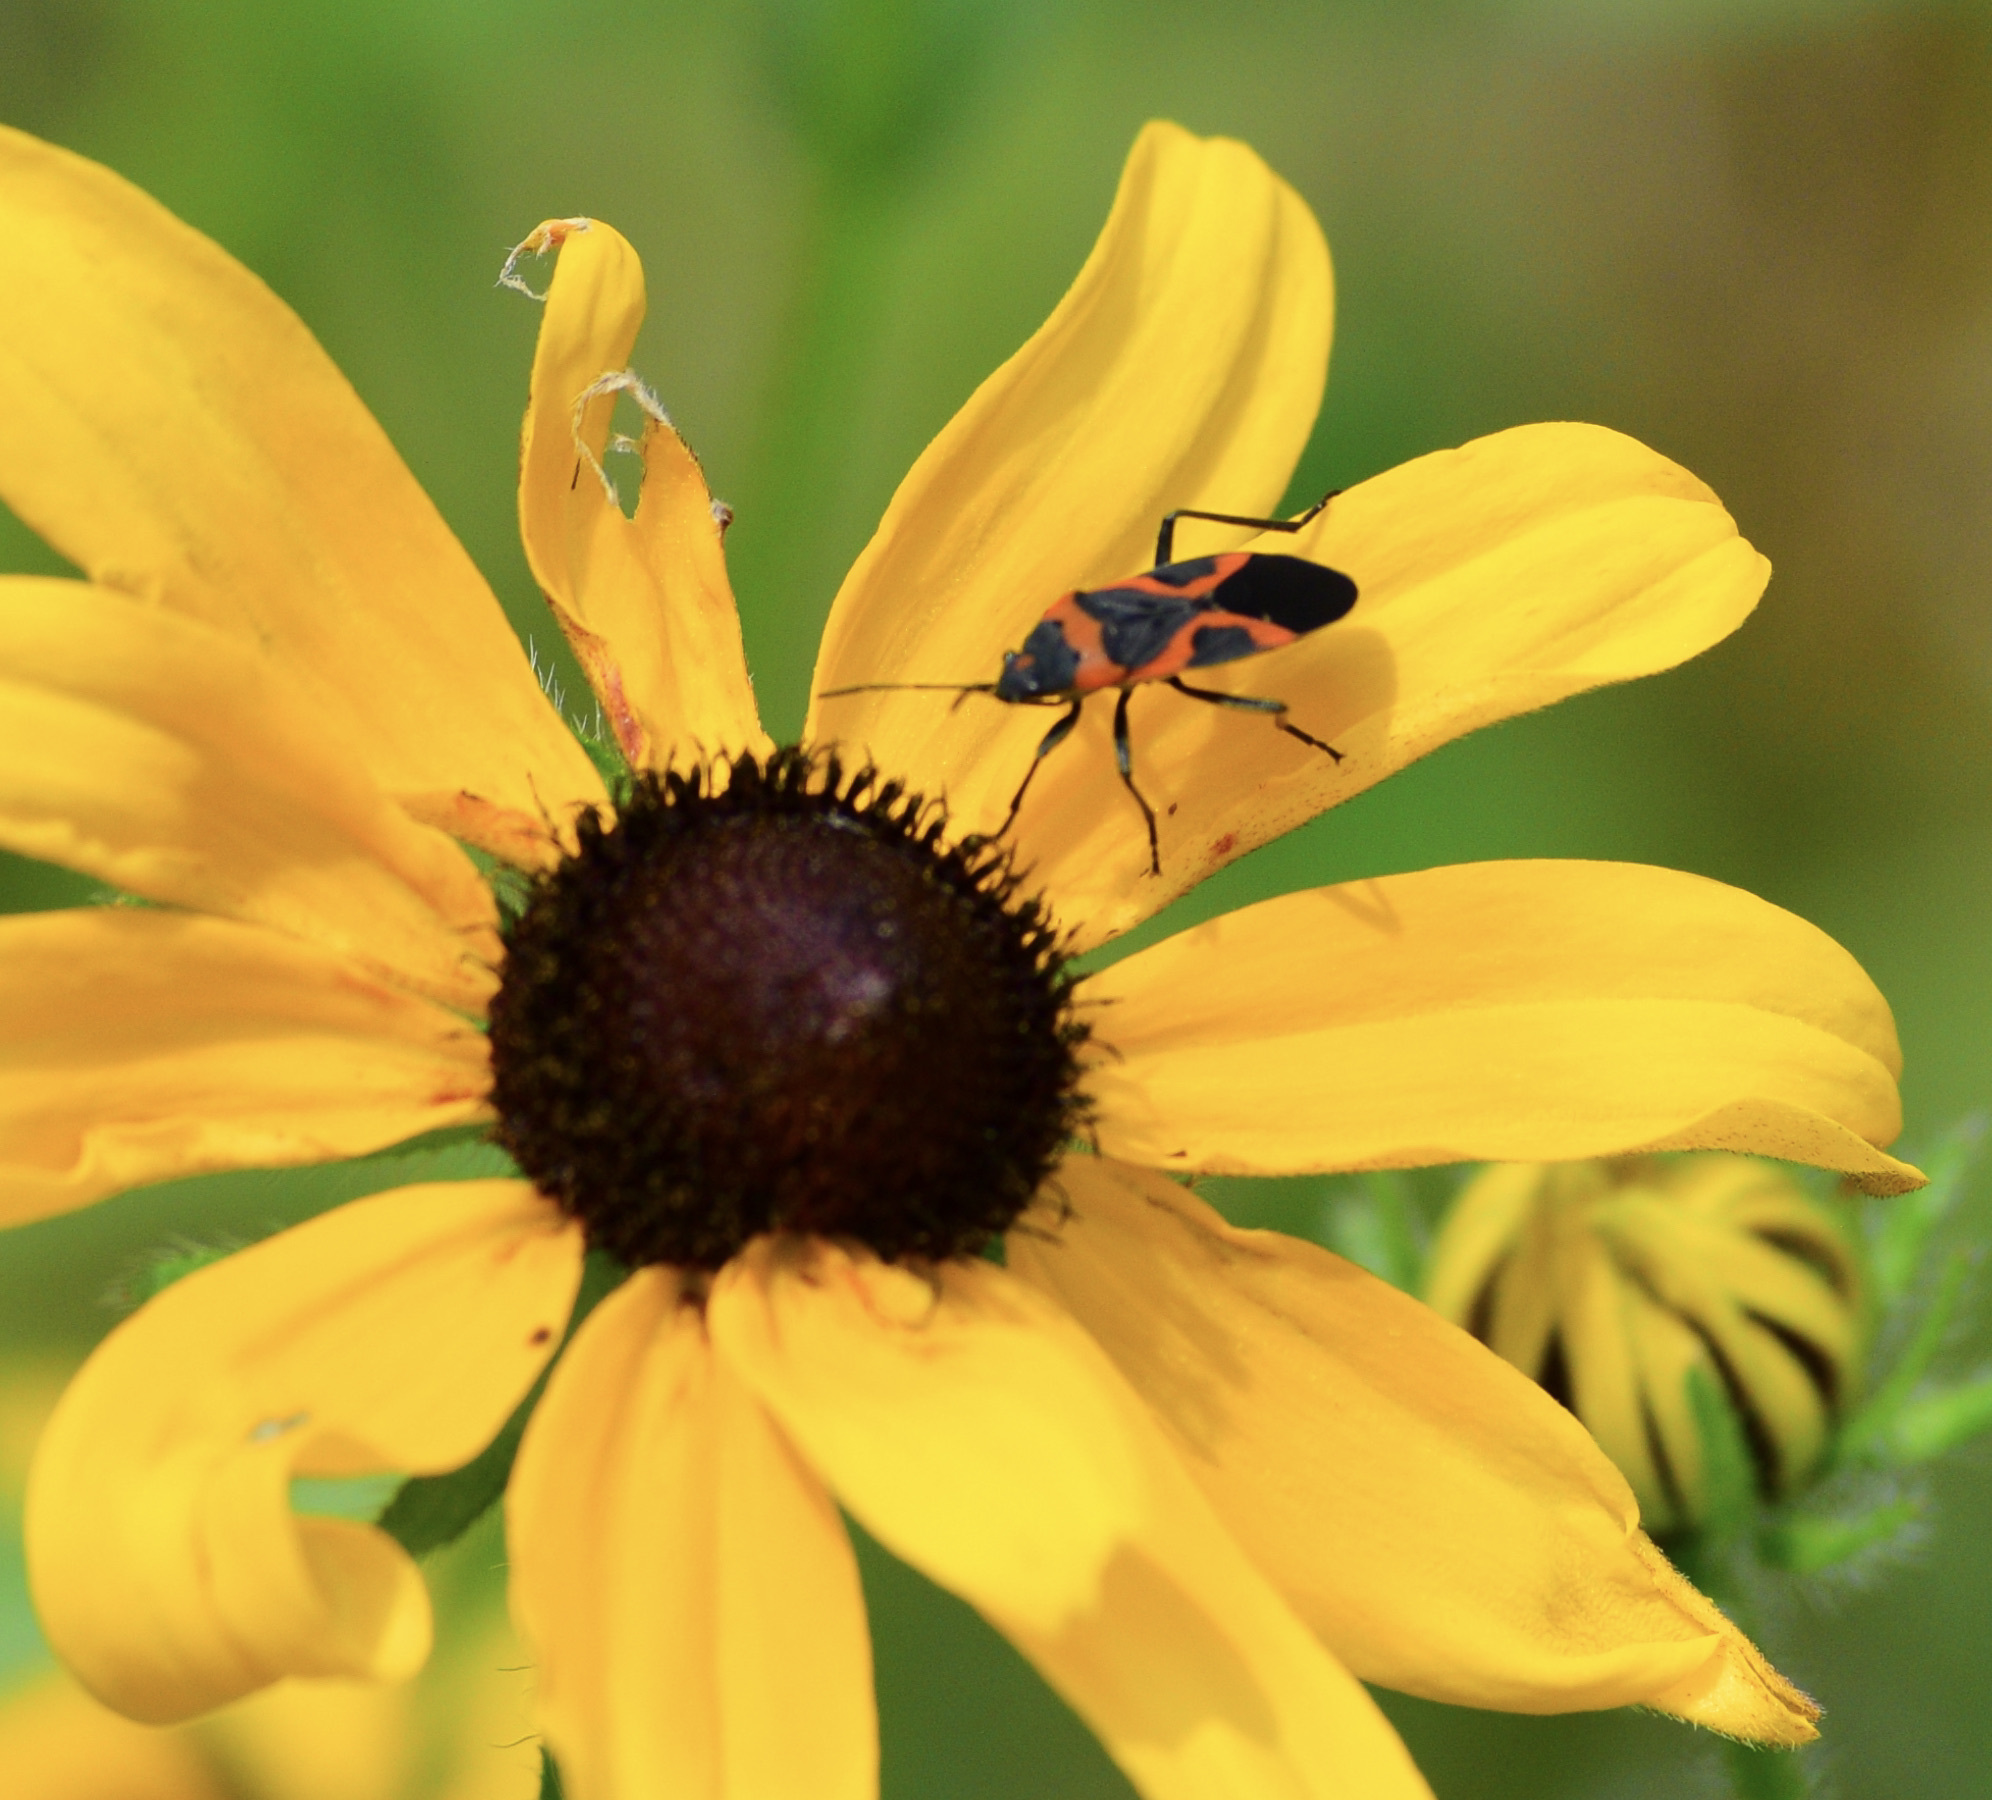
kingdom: Animalia
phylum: Arthropoda
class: Insecta
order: Hemiptera
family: Lygaeidae
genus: Lygaeus
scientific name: Lygaeus kalmii
